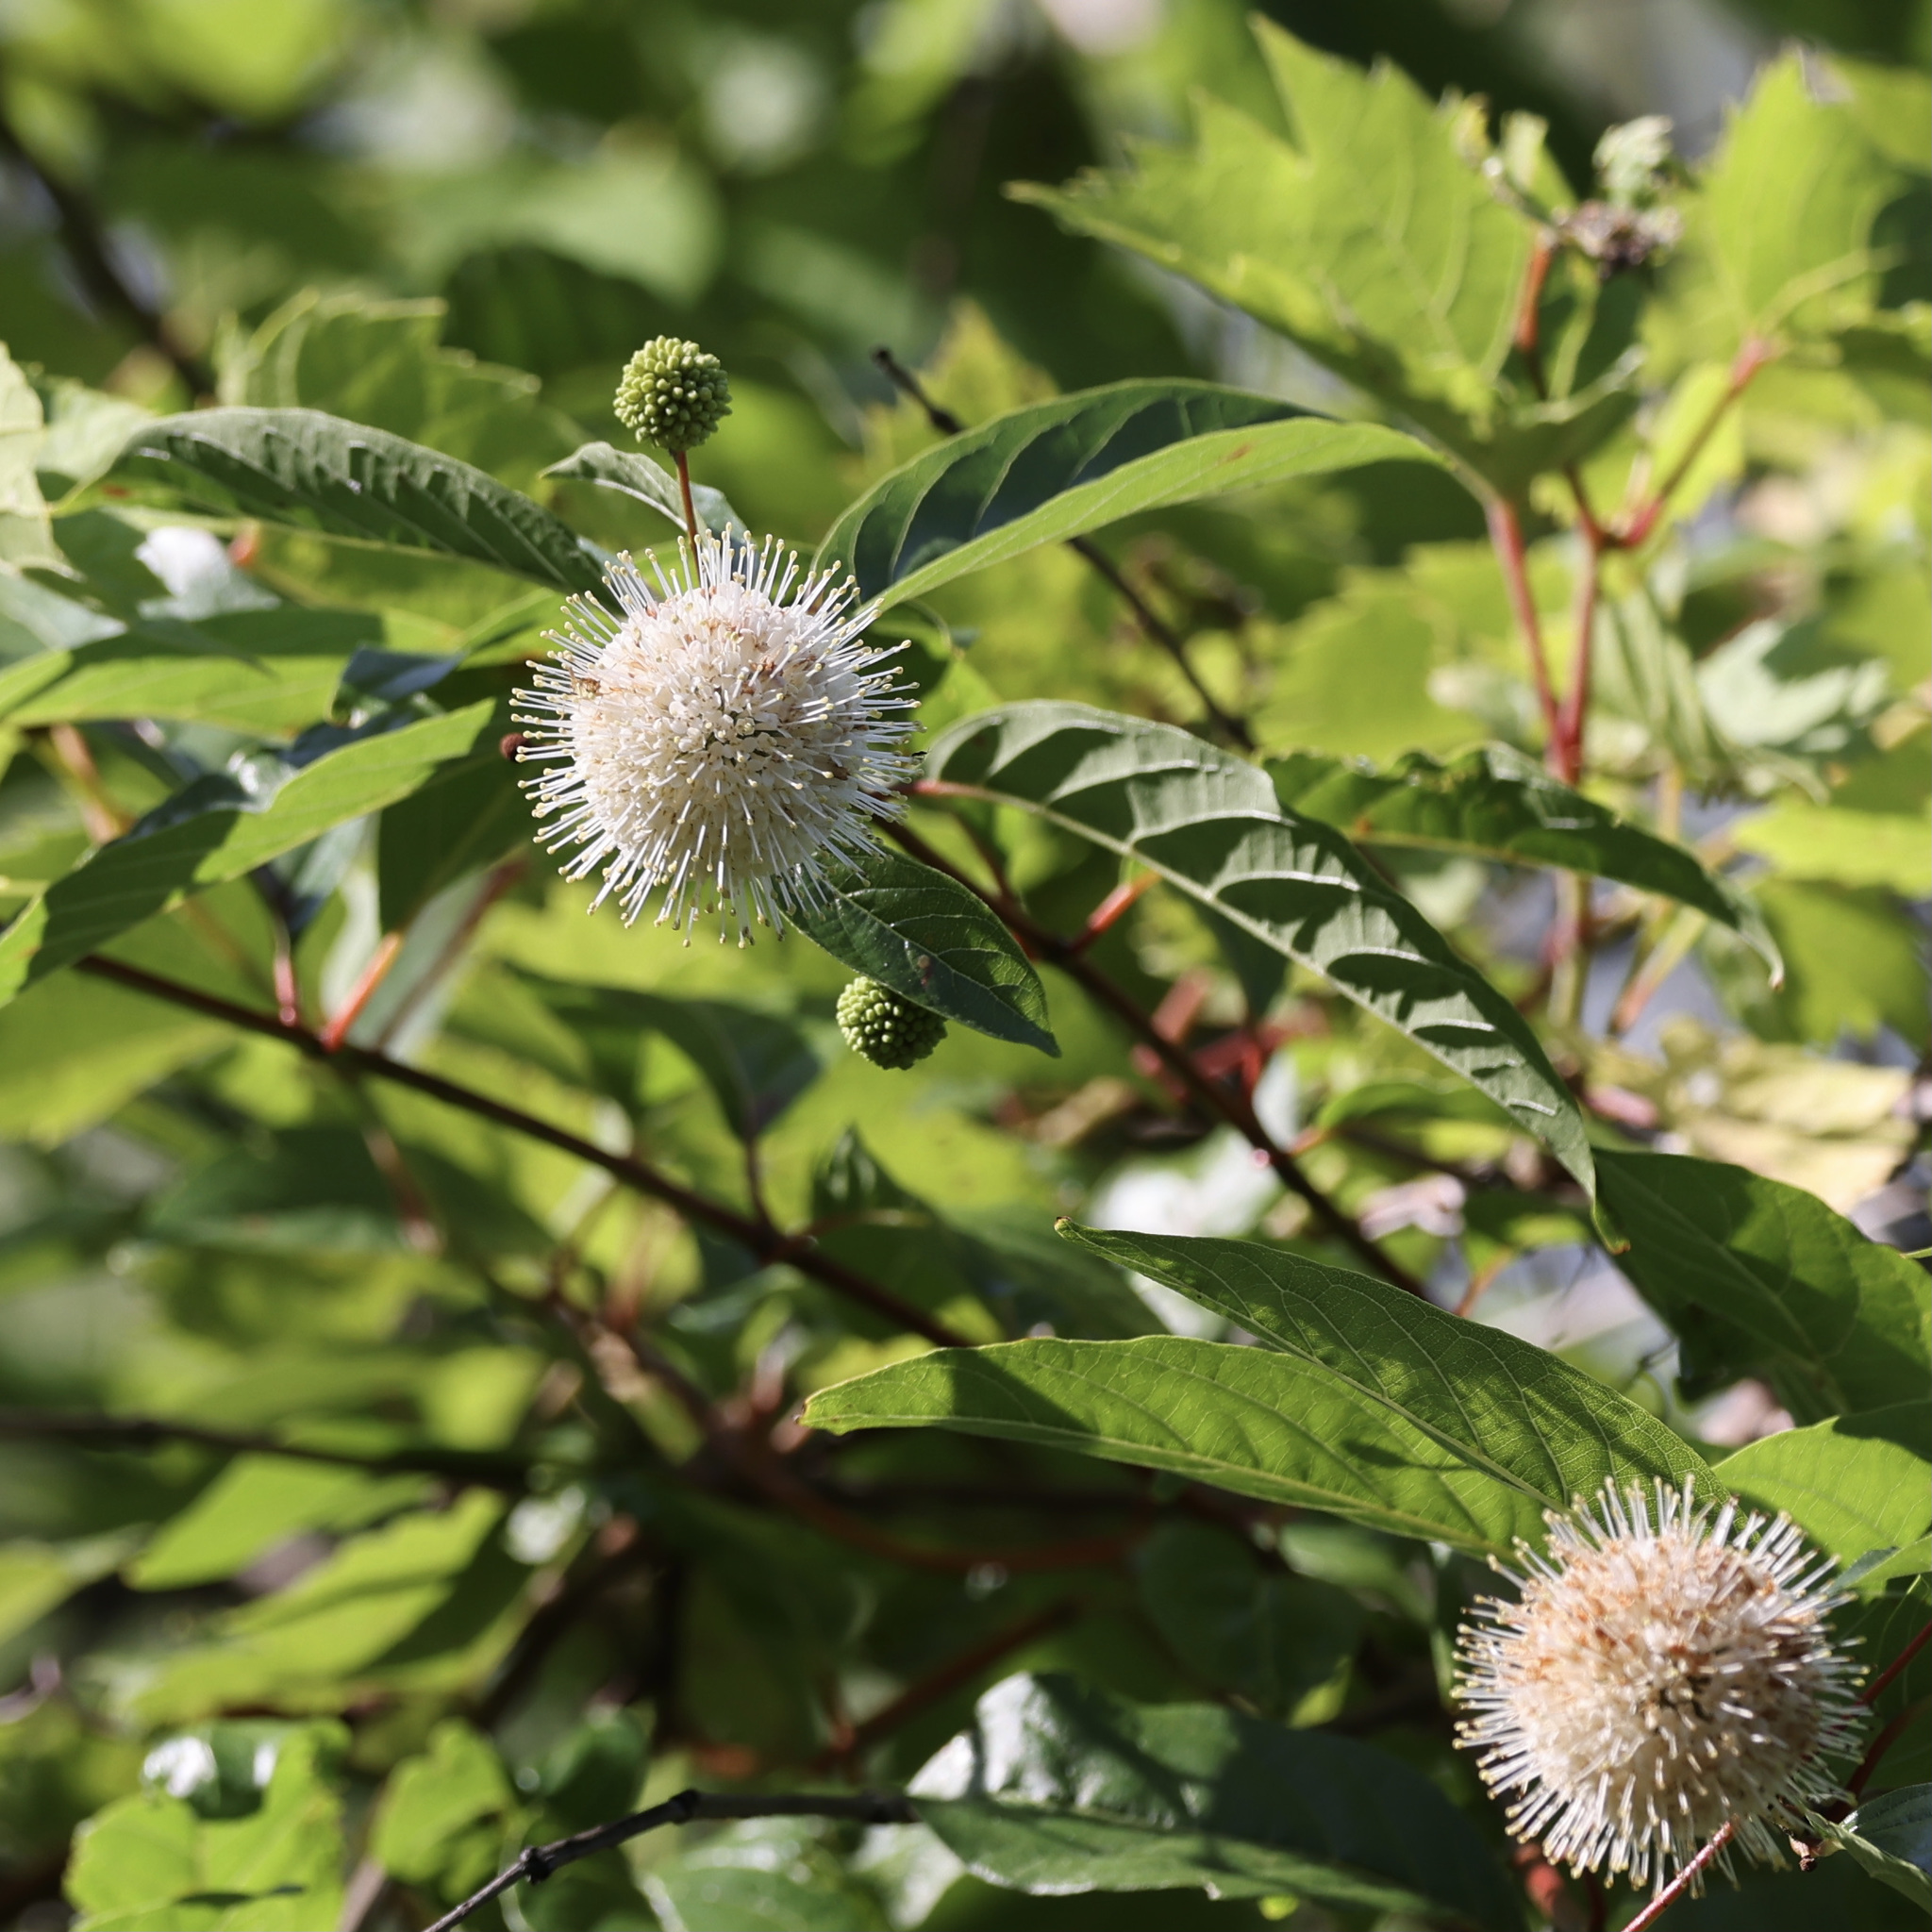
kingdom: Plantae
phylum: Tracheophyta
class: Magnoliopsida
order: Gentianales
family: Rubiaceae
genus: Cephalanthus
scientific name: Cephalanthus occidentalis
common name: Button-willow
